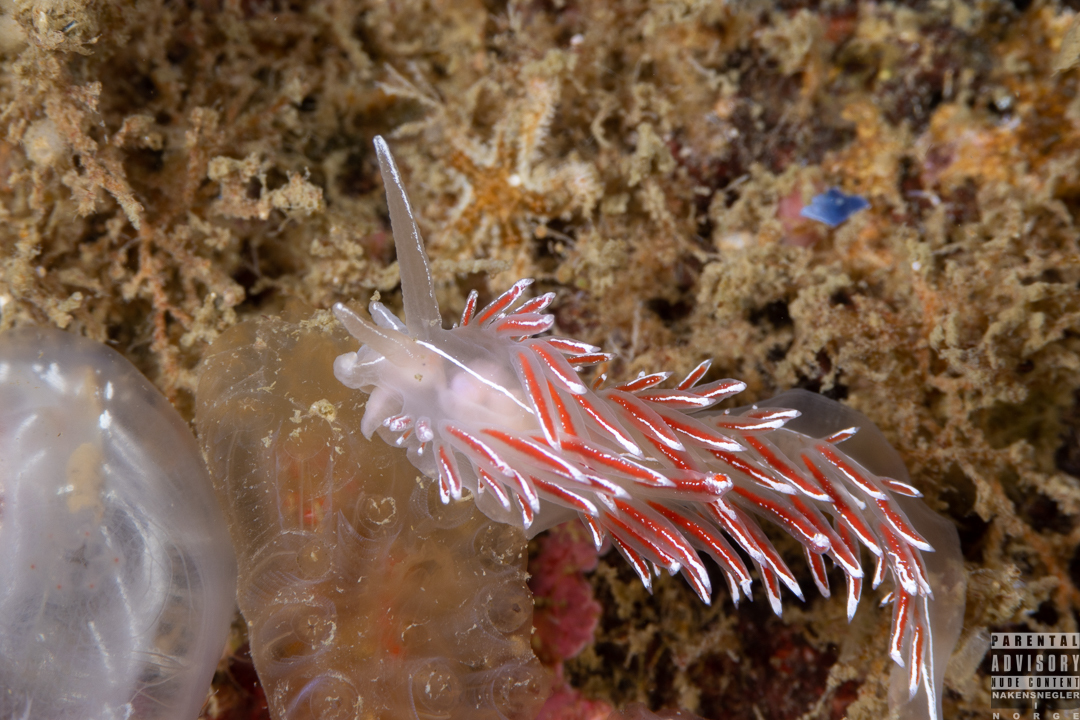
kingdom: Animalia
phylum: Mollusca
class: Gastropoda
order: Nudibranchia
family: Coryphellidae
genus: Coryphella
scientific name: Coryphella lineata
